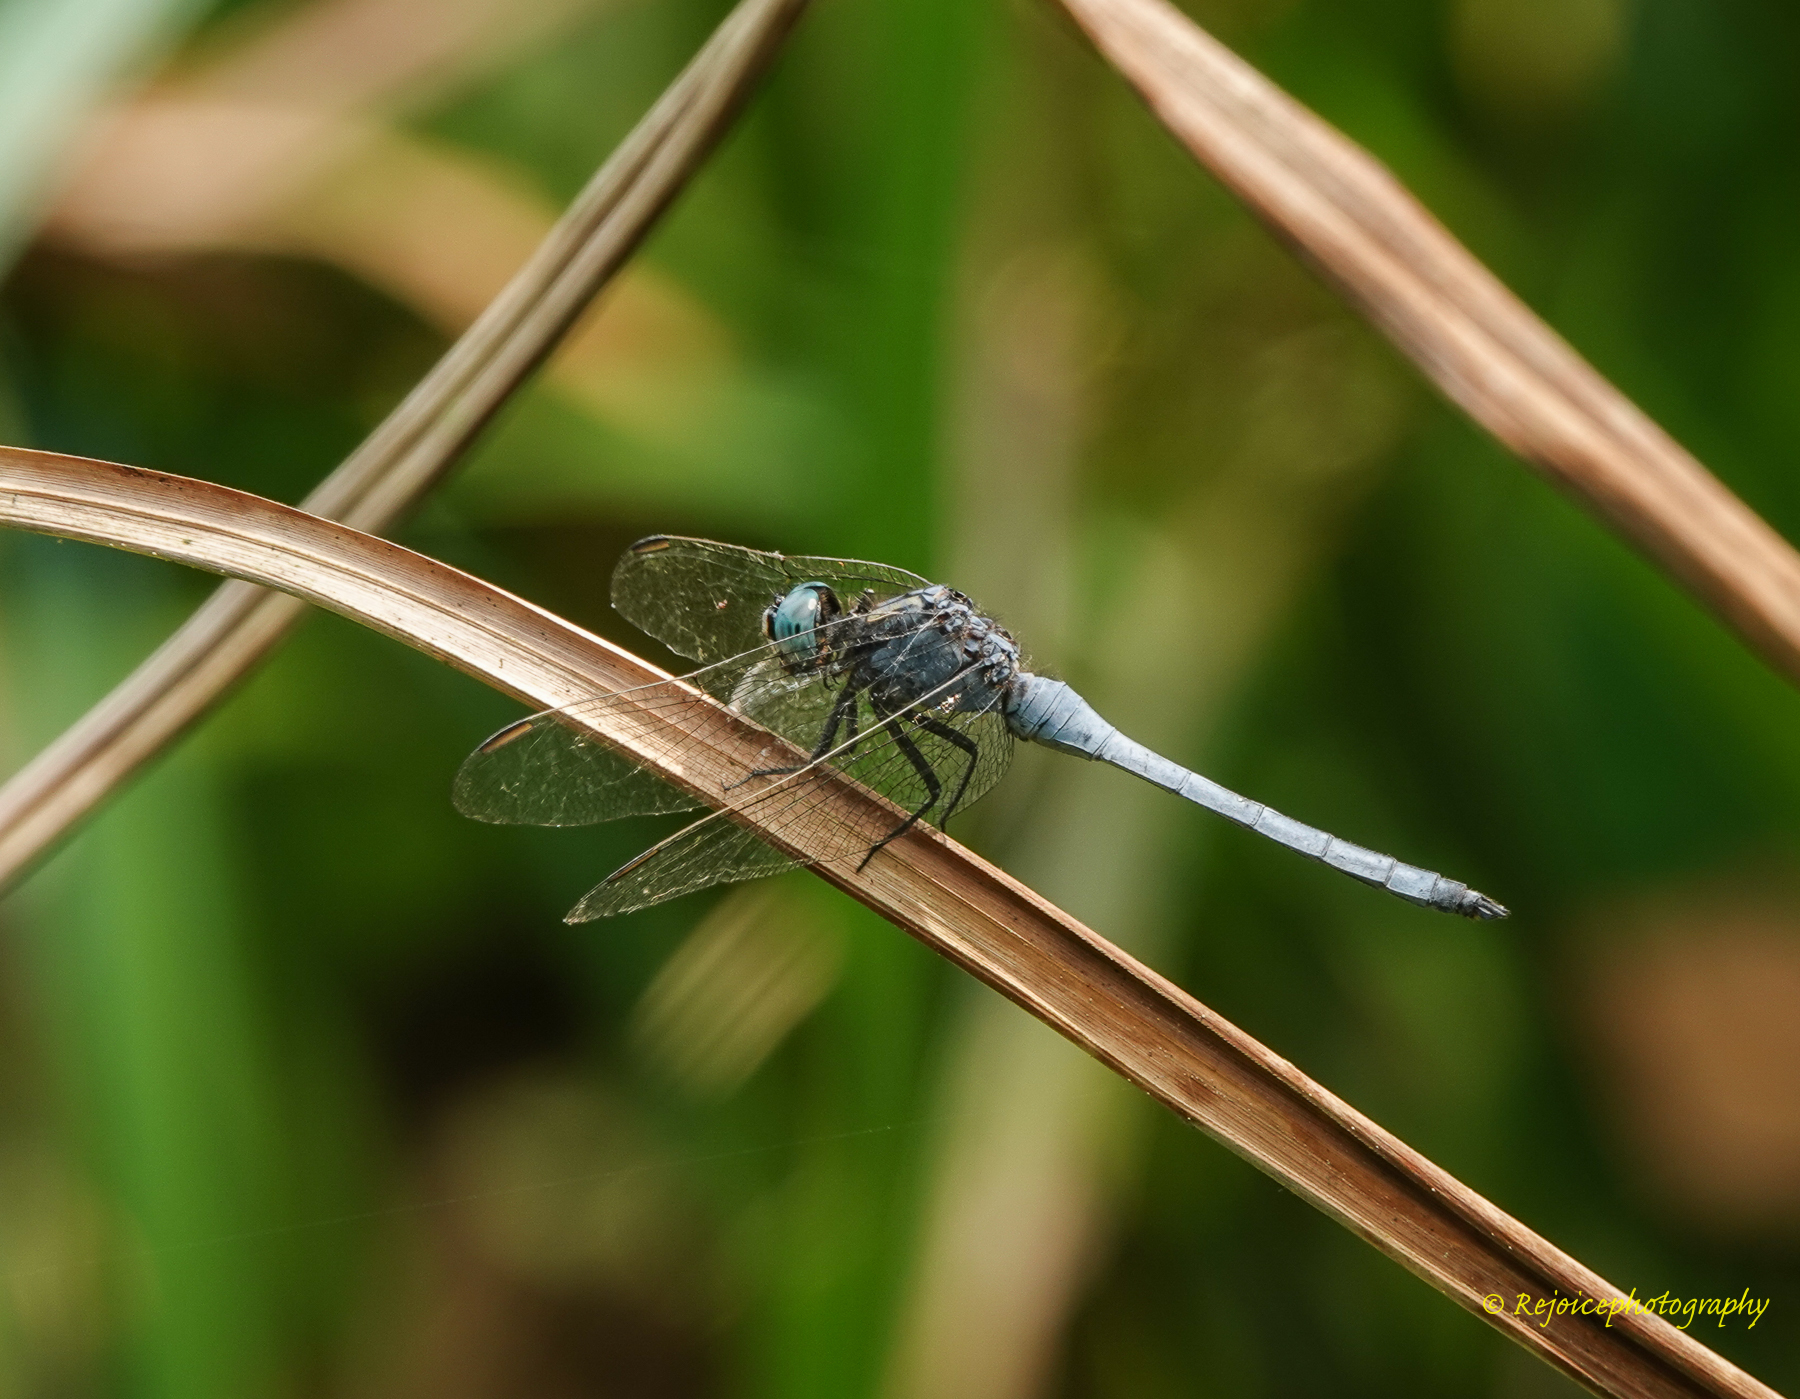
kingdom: Animalia
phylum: Arthropoda
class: Insecta
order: Odonata
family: Libellulidae
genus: Orthetrum
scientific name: Orthetrum luzonicum
